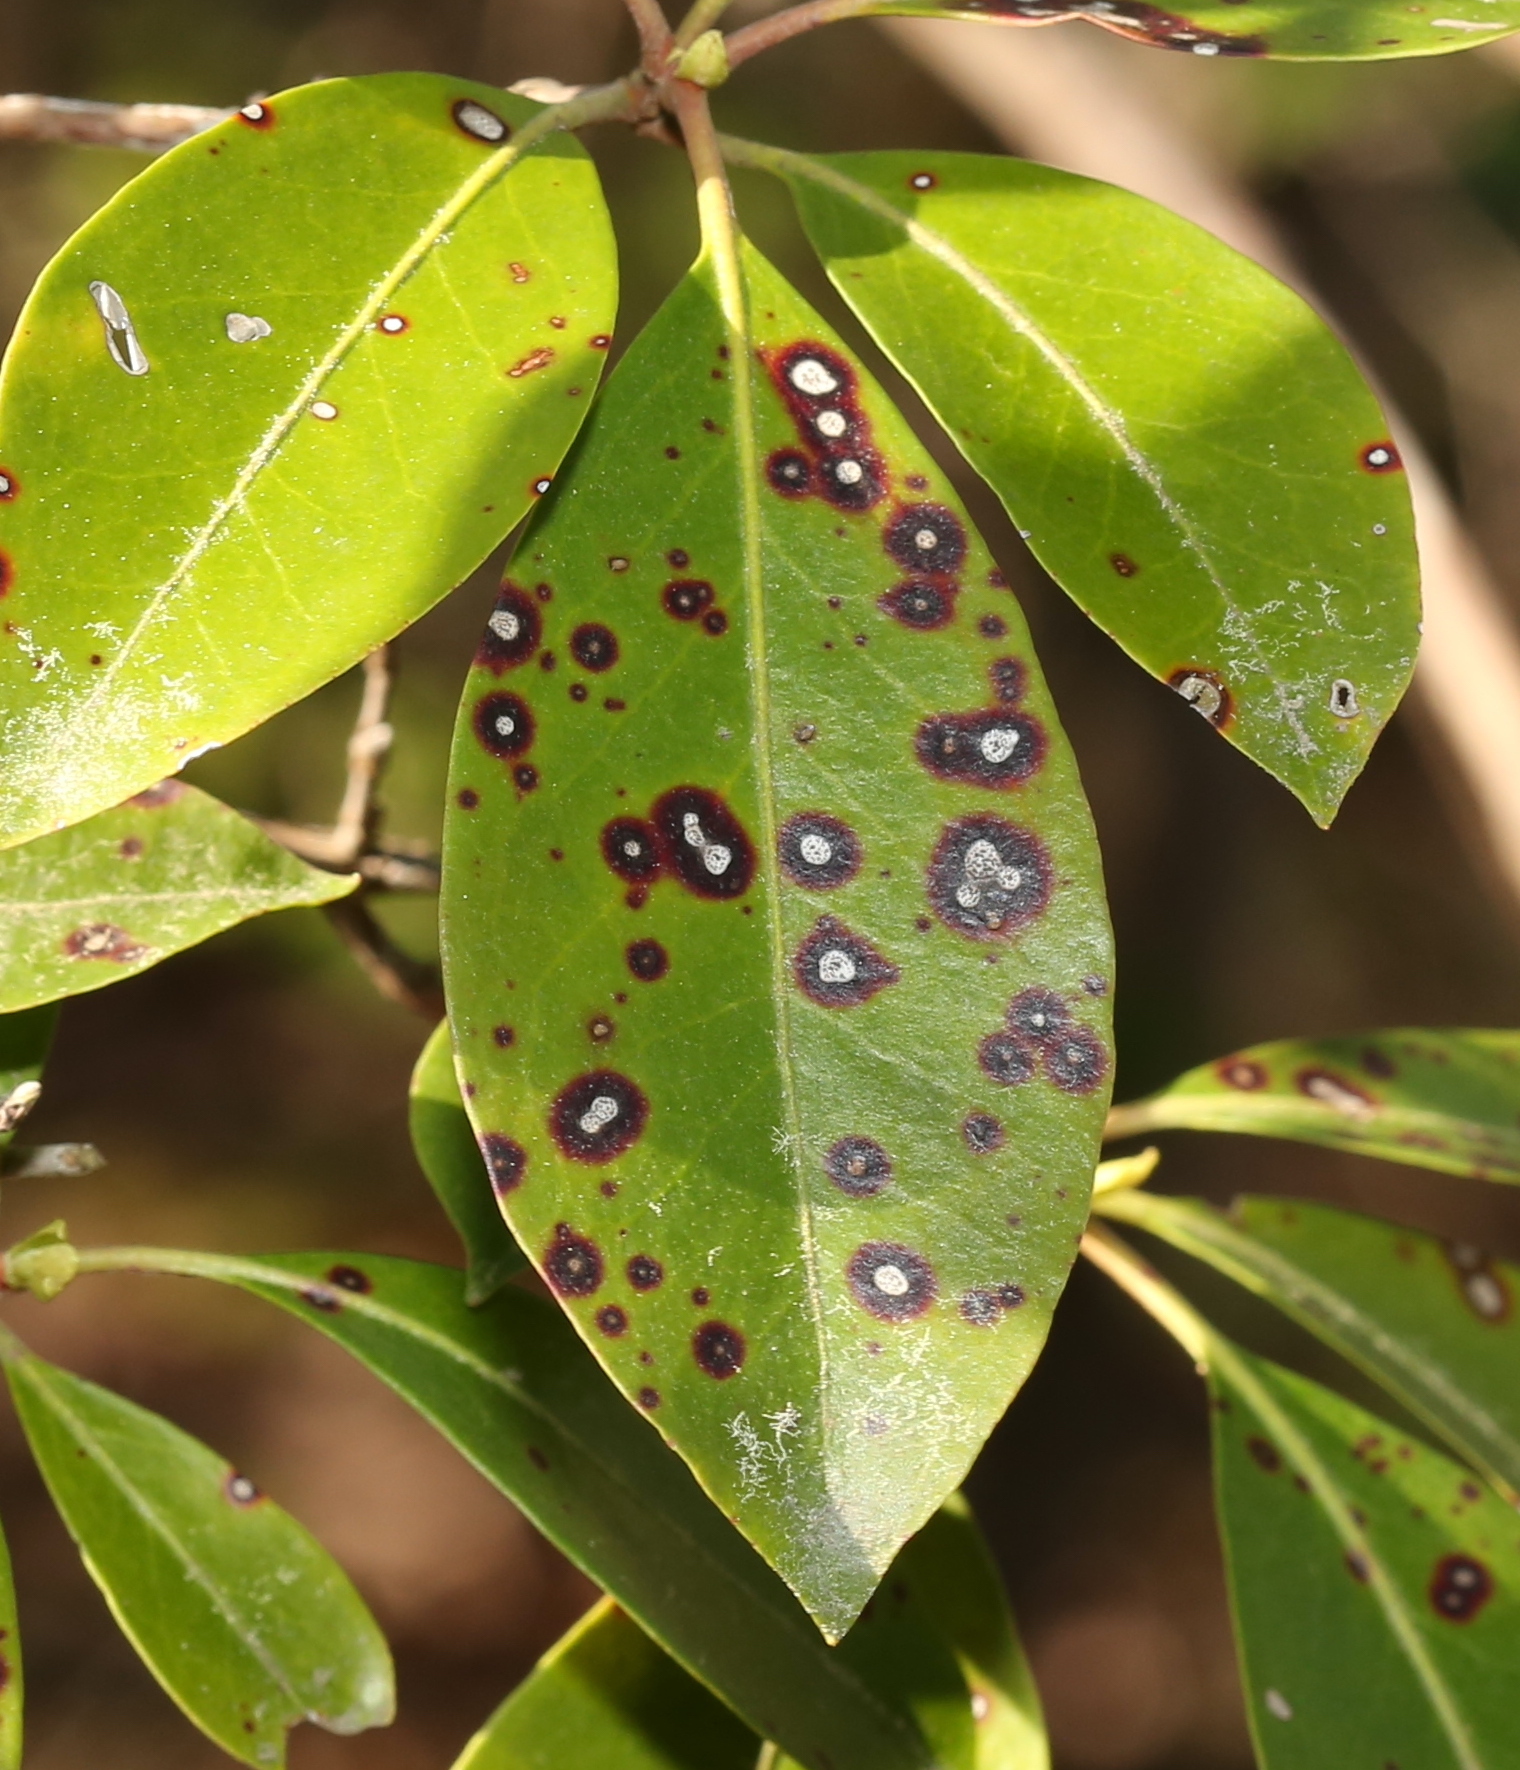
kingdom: Fungi
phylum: Ascomycota
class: Dothideomycetes
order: Mycosphaerellales
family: Mycosphaerellaceae
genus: Mycosphaerella
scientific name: Mycosphaerella colorata
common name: Mountain laurel leaf spot
